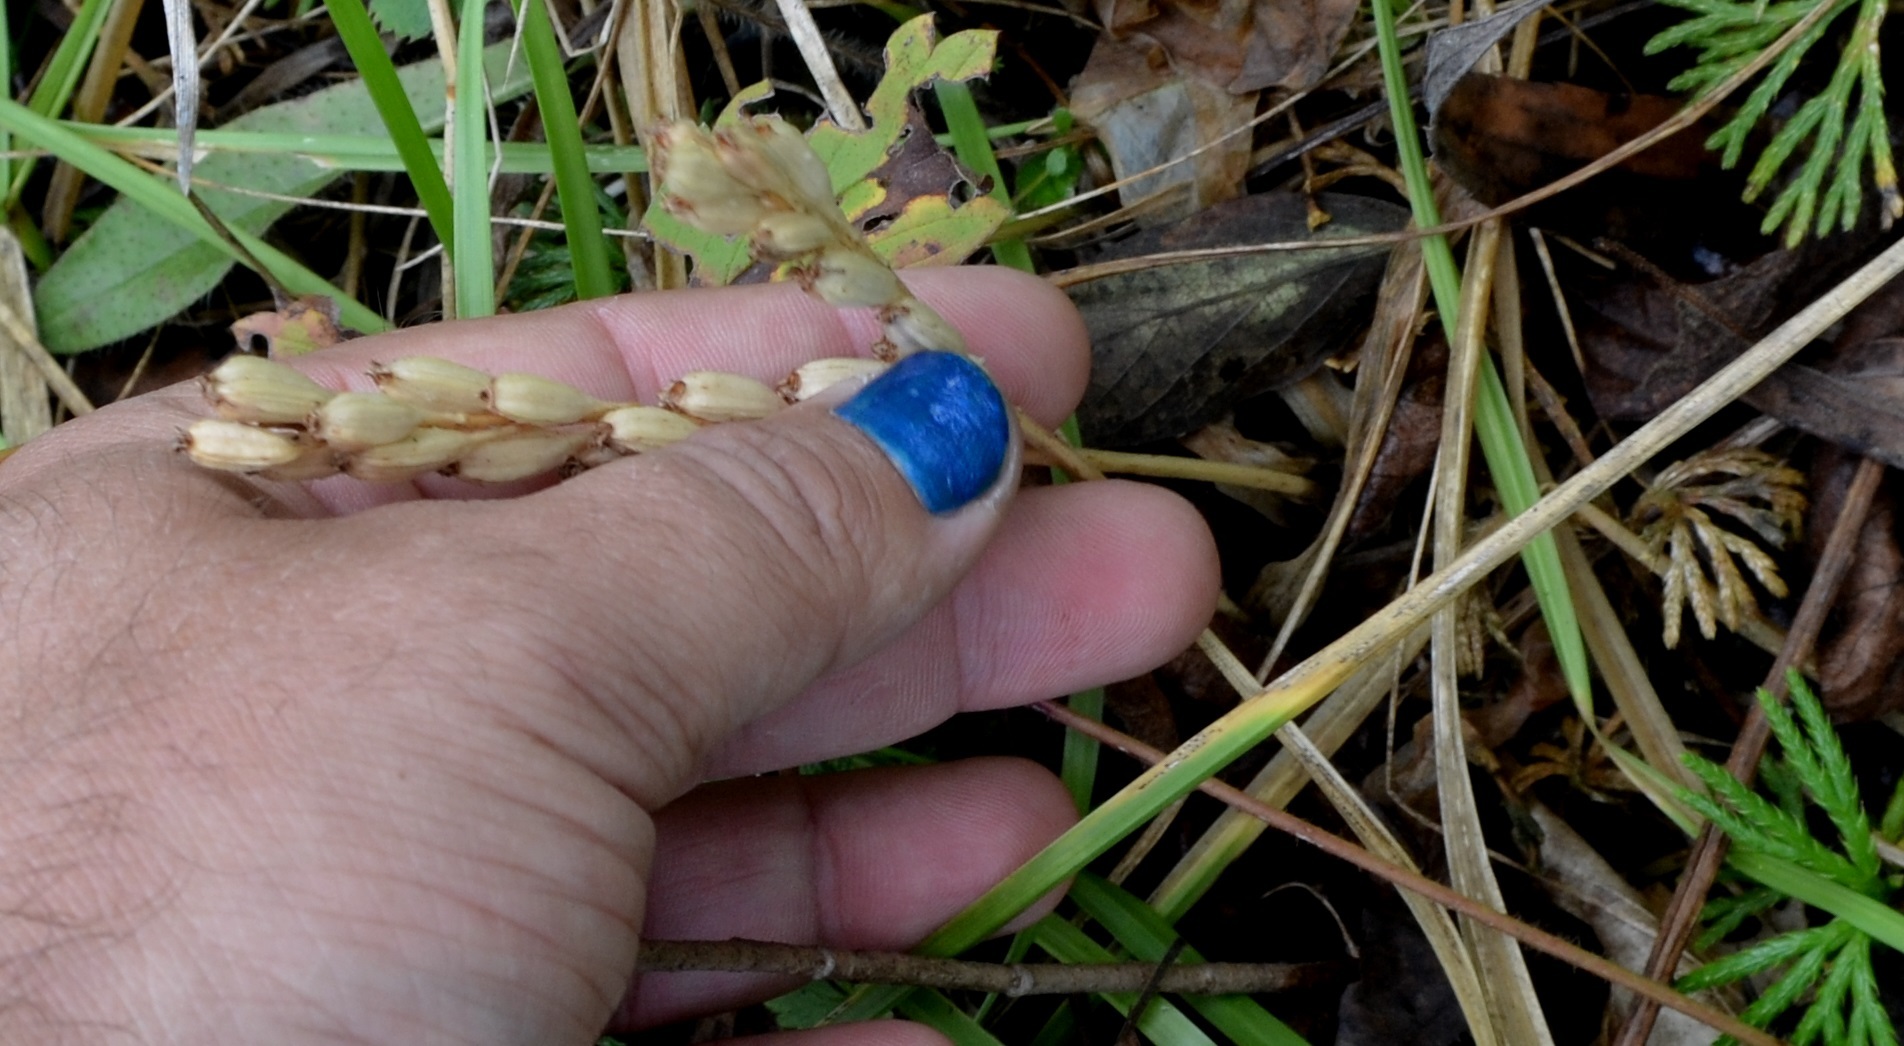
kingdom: Animalia
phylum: Arthropoda
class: Insecta
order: Coleoptera
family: Curculionidae
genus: Liparis
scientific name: Liparis loeselii
